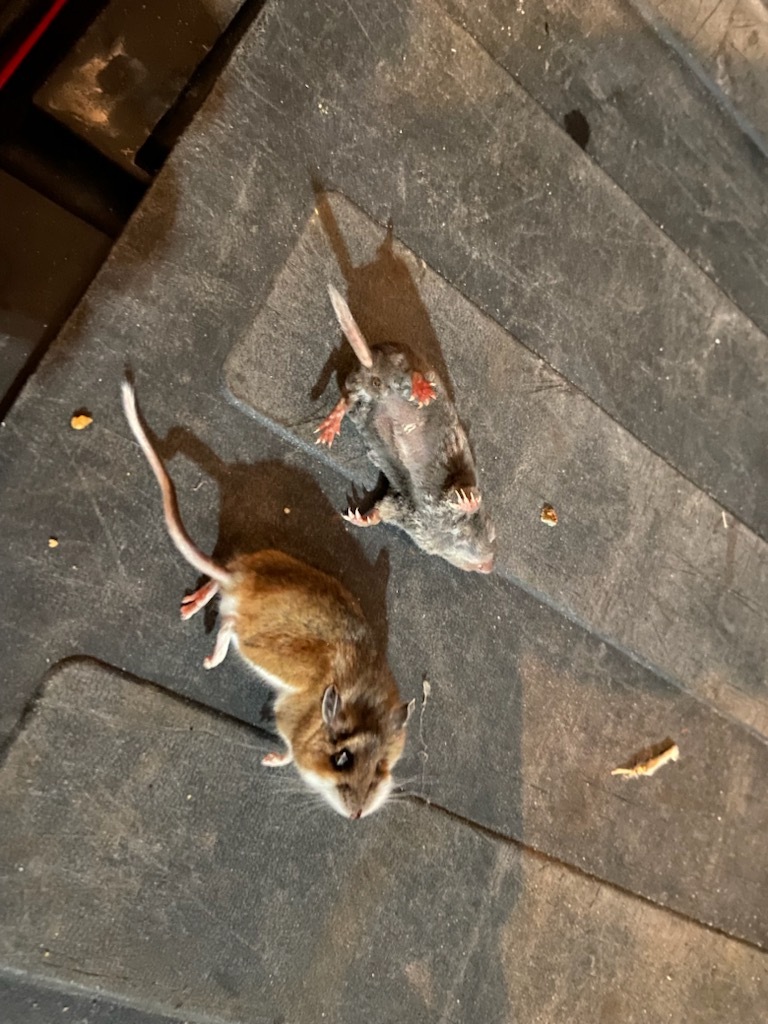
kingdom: Animalia
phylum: Chordata
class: Mammalia
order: Rodentia
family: Cricetidae
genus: Peromyscus
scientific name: Peromyscus maniculatus
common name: Deer mouse
